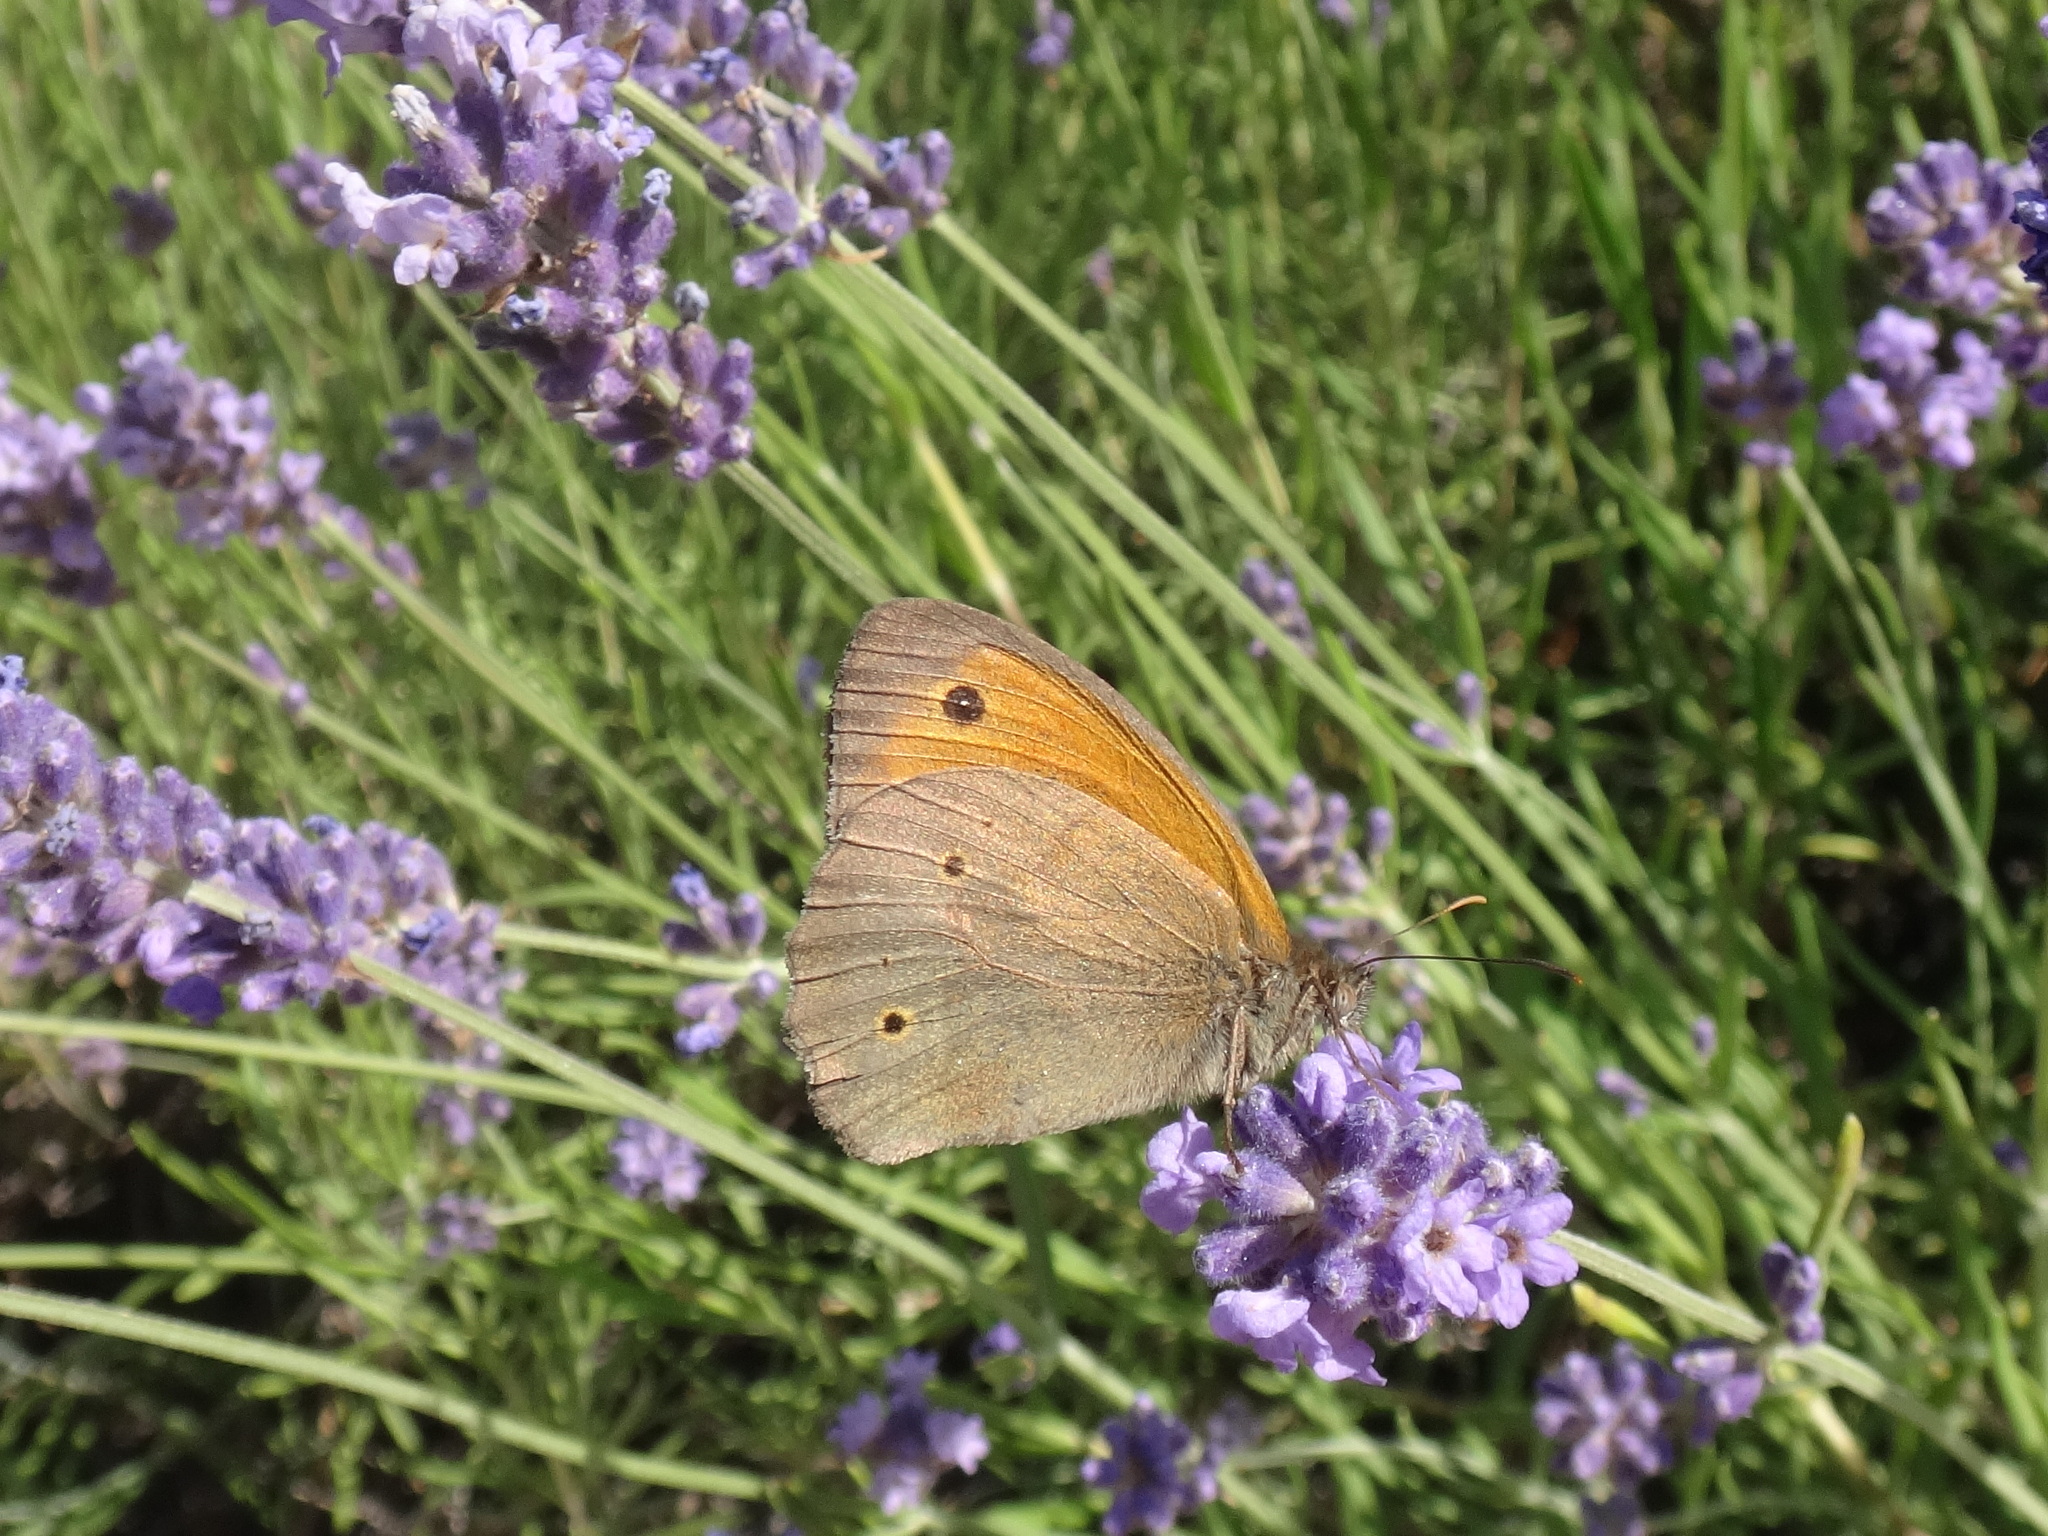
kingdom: Animalia
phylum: Arthropoda
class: Insecta
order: Lepidoptera
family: Nymphalidae
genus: Maniola
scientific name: Maniola jurtina
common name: Meadow brown
